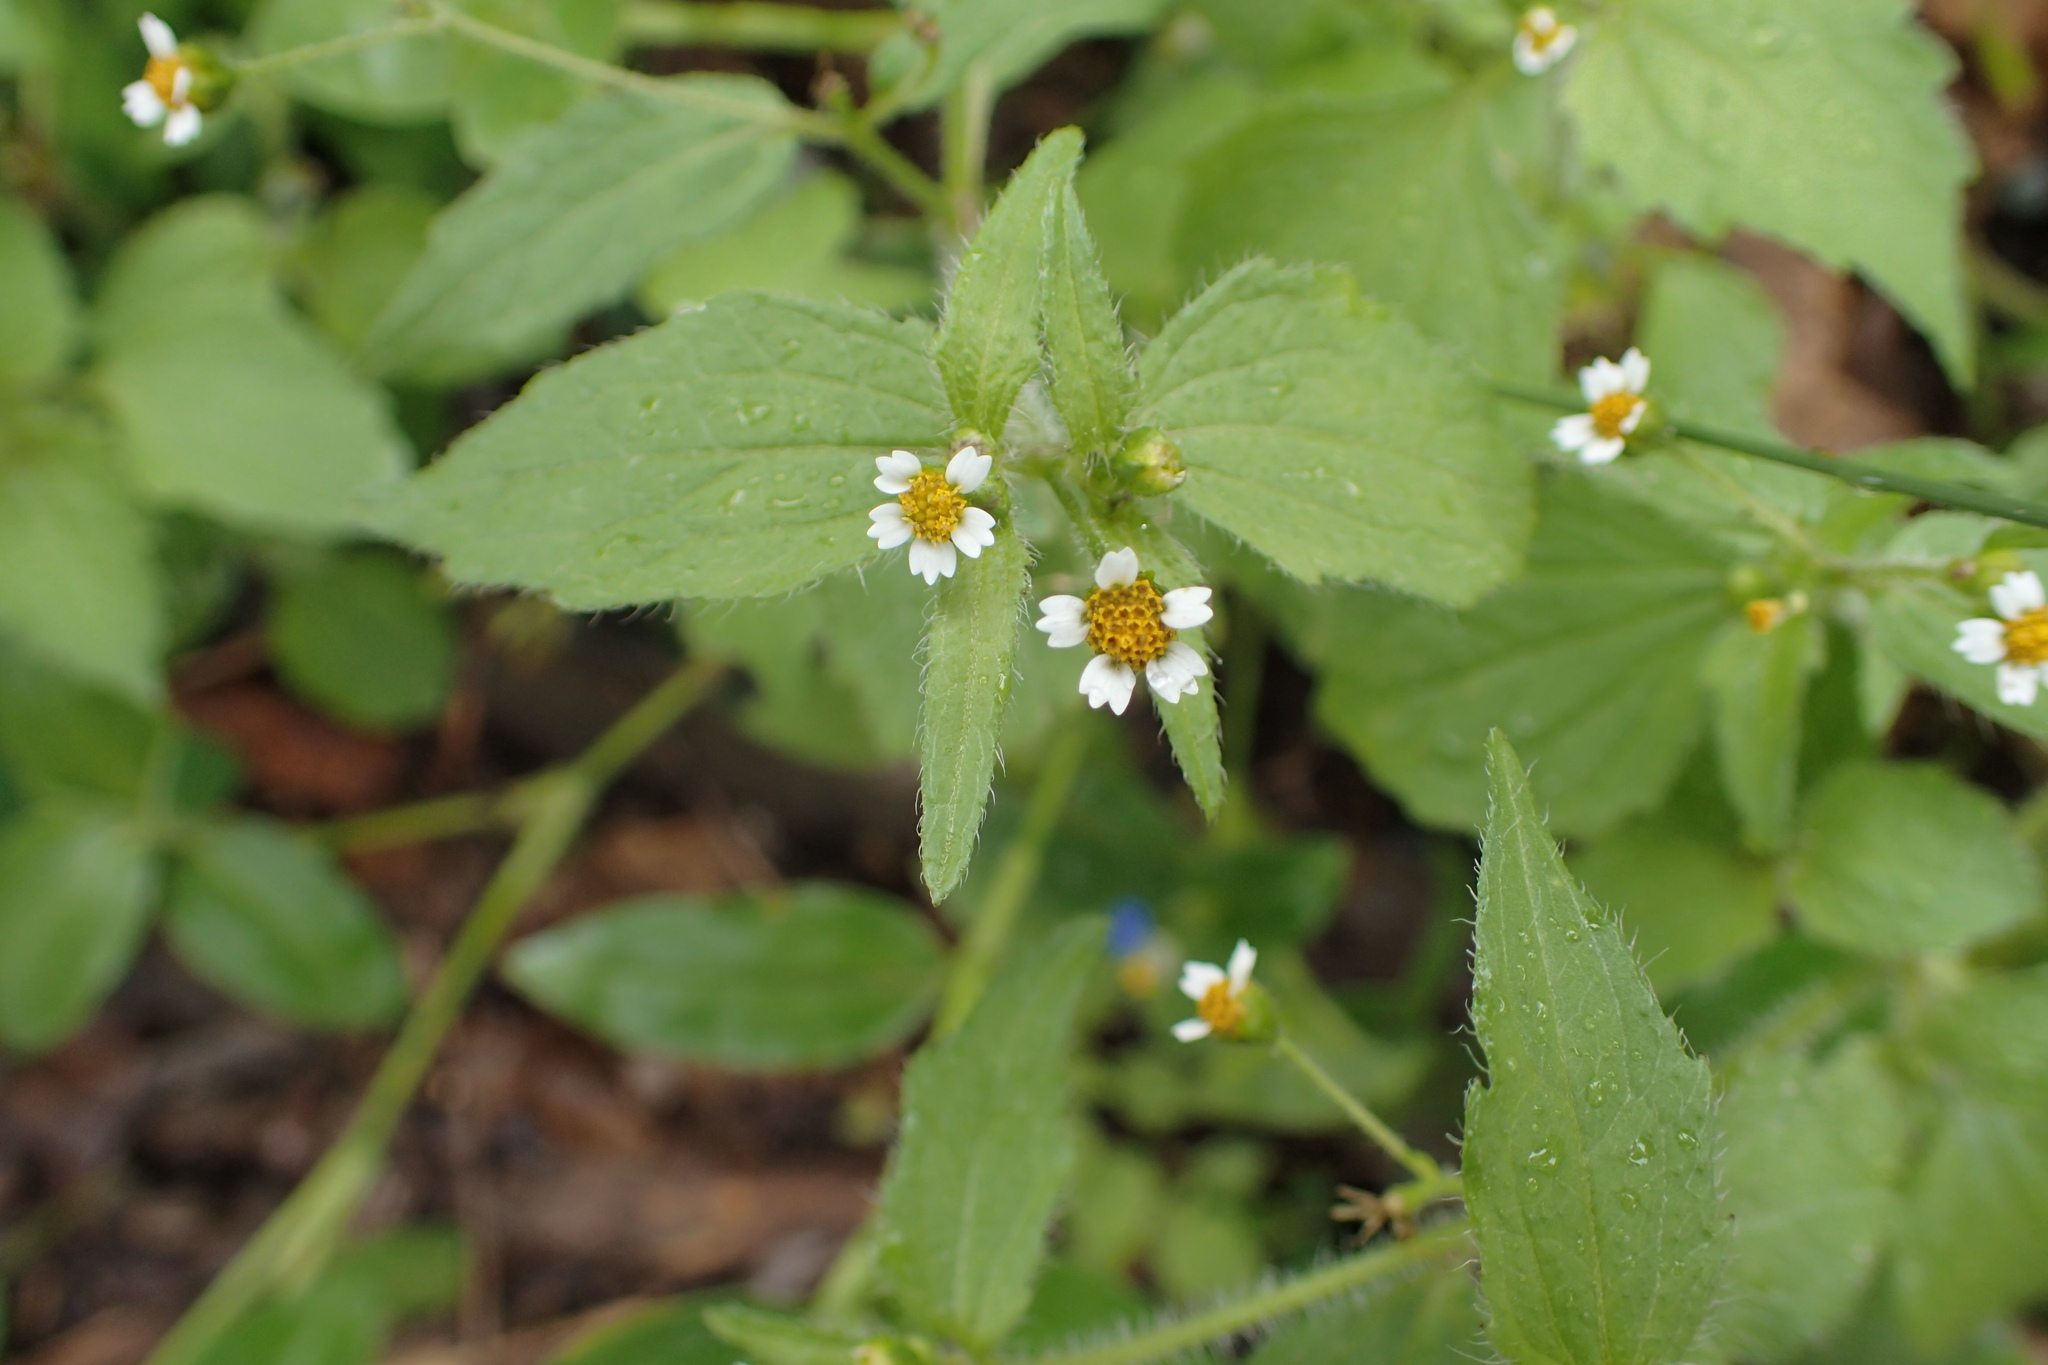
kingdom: Plantae
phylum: Tracheophyta
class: Magnoliopsida
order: Asterales
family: Asteraceae
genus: Galinsoga
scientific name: Galinsoga quadriradiata
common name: Shaggy soldier
